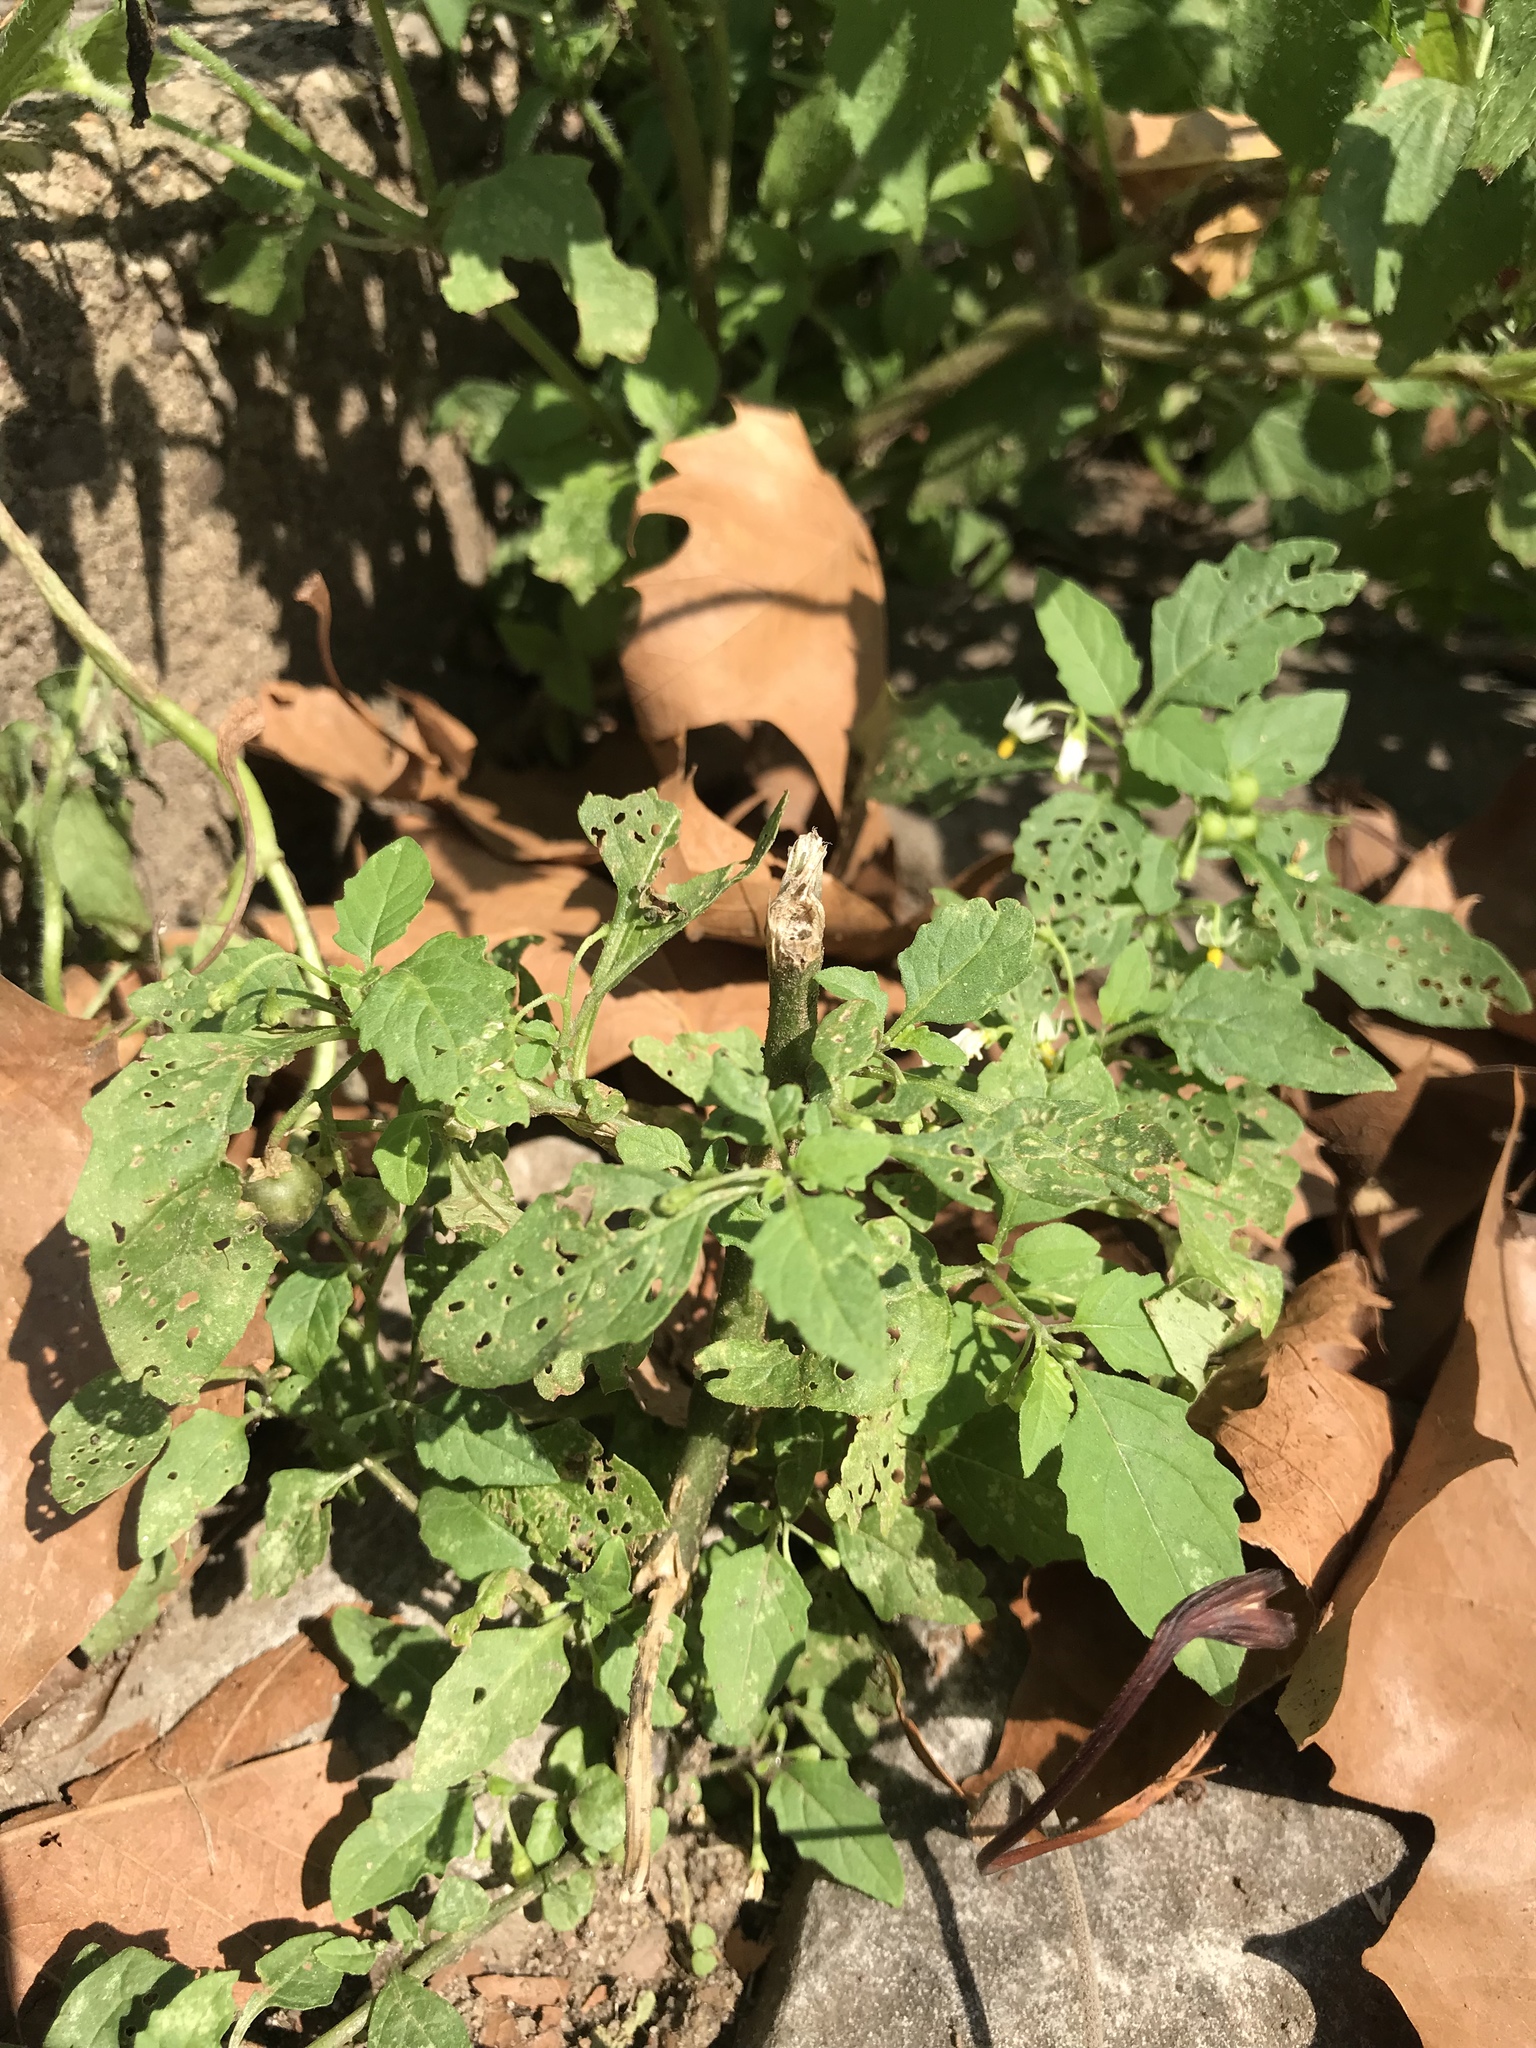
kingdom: Plantae
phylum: Tracheophyta
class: Magnoliopsida
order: Solanales
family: Solanaceae
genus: Solanum
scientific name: Solanum emulans
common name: Eastern black nightshade
